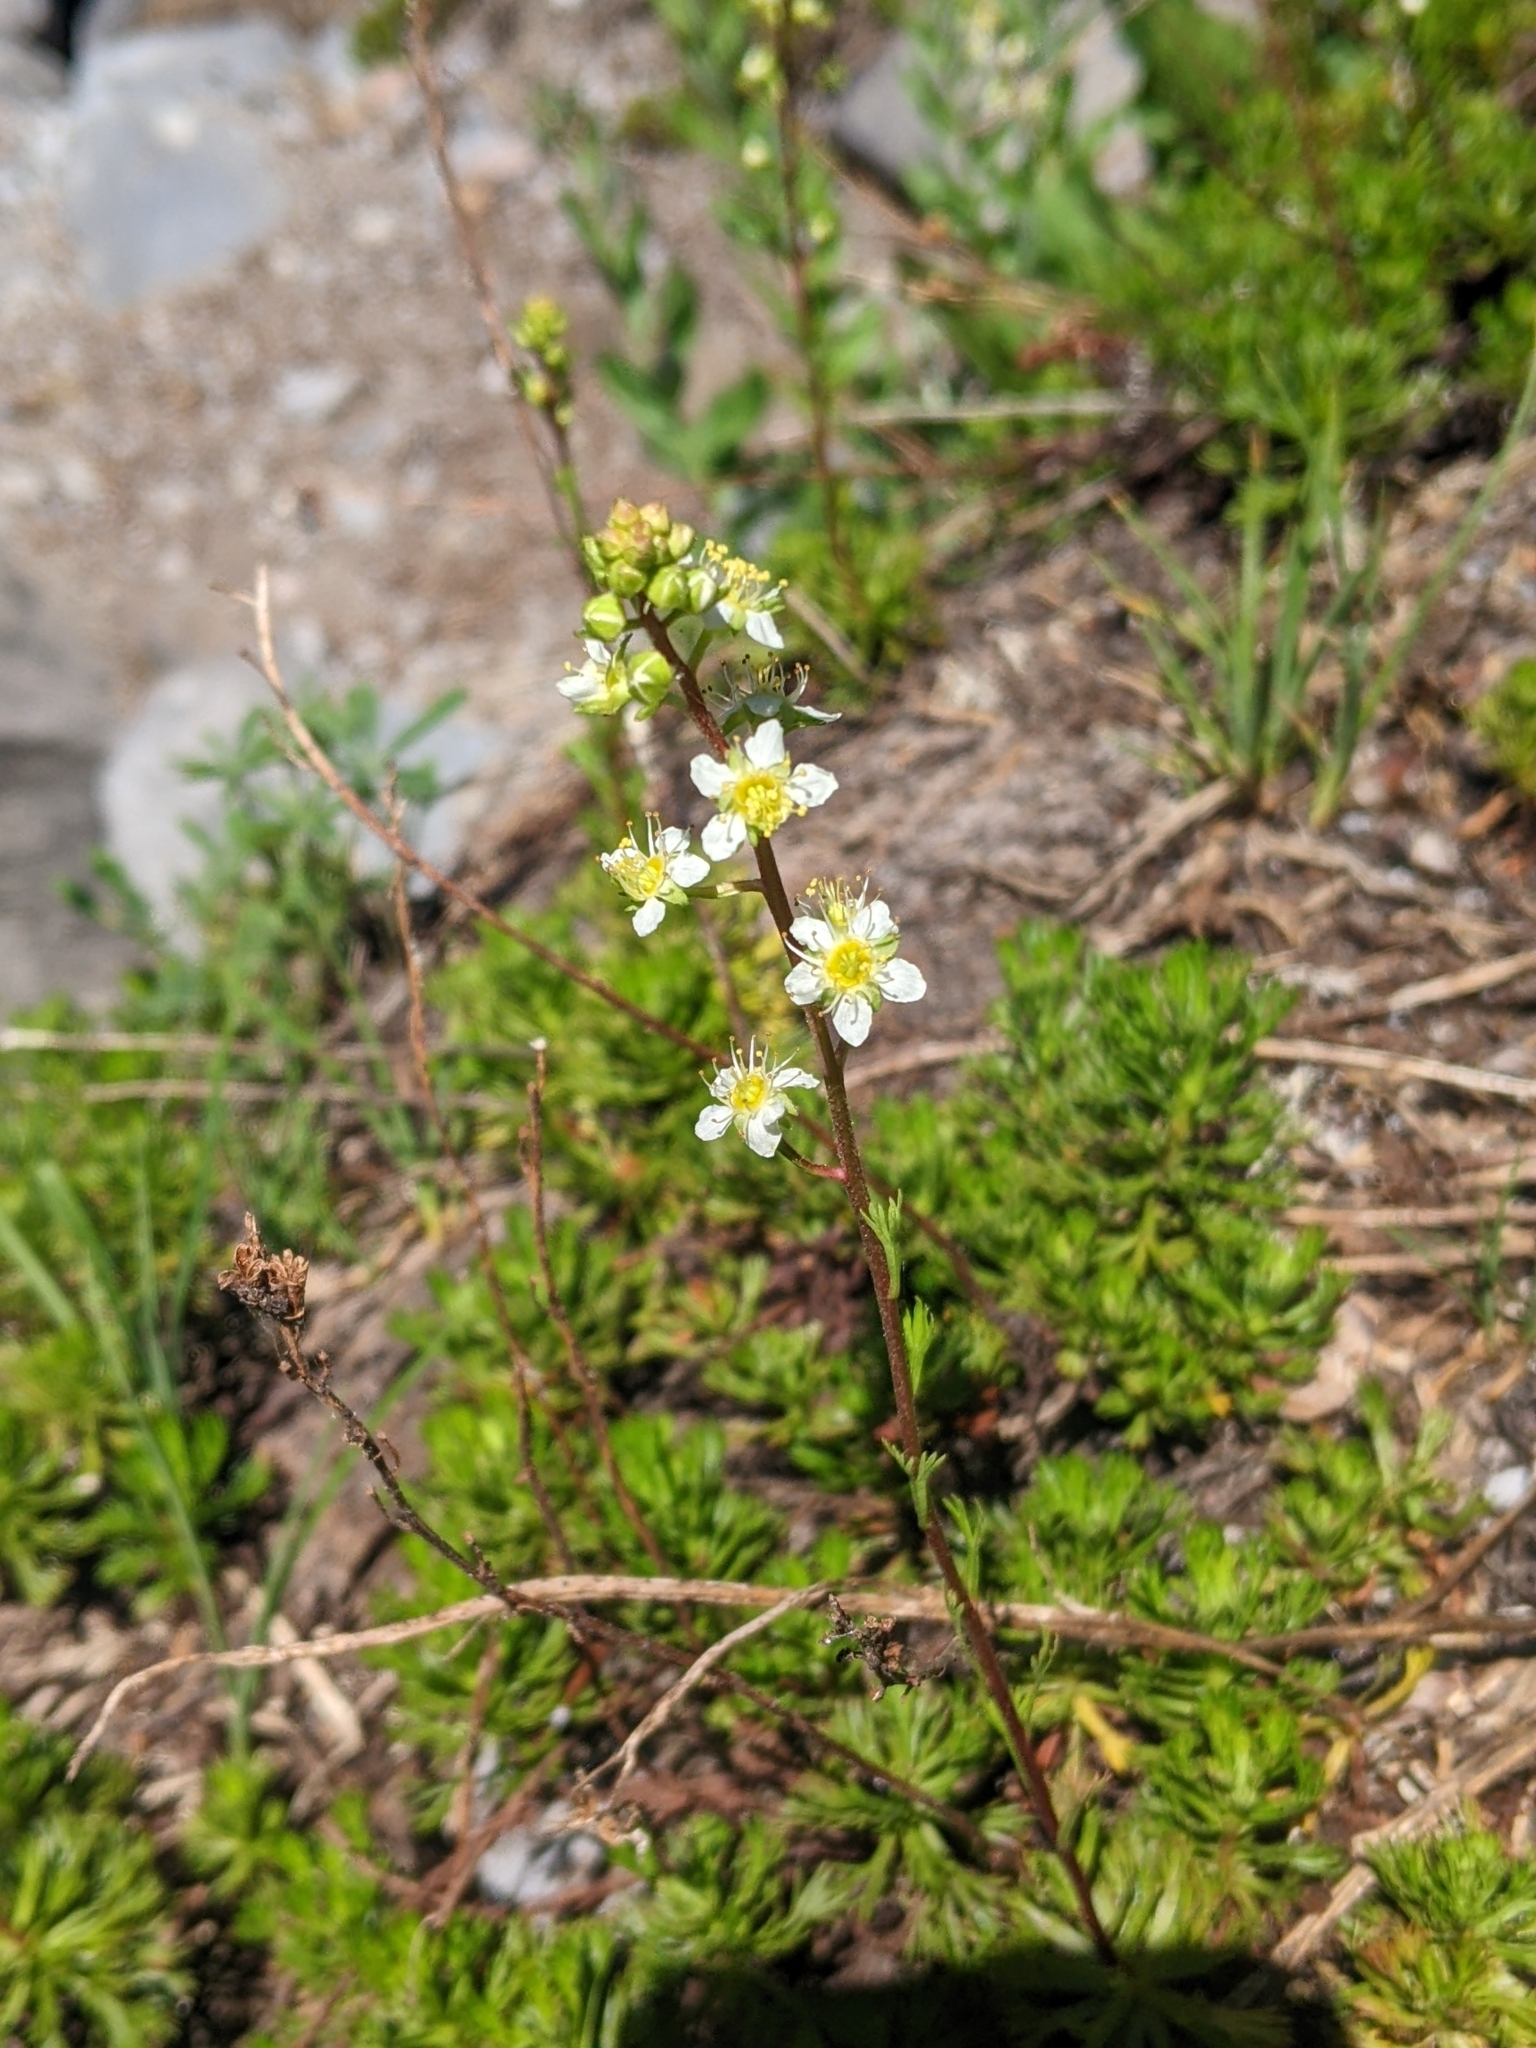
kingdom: Plantae
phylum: Tracheophyta
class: Magnoliopsida
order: Rosales
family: Rosaceae
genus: Luetkea
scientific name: Luetkea pectinata
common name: Partridgefoot
